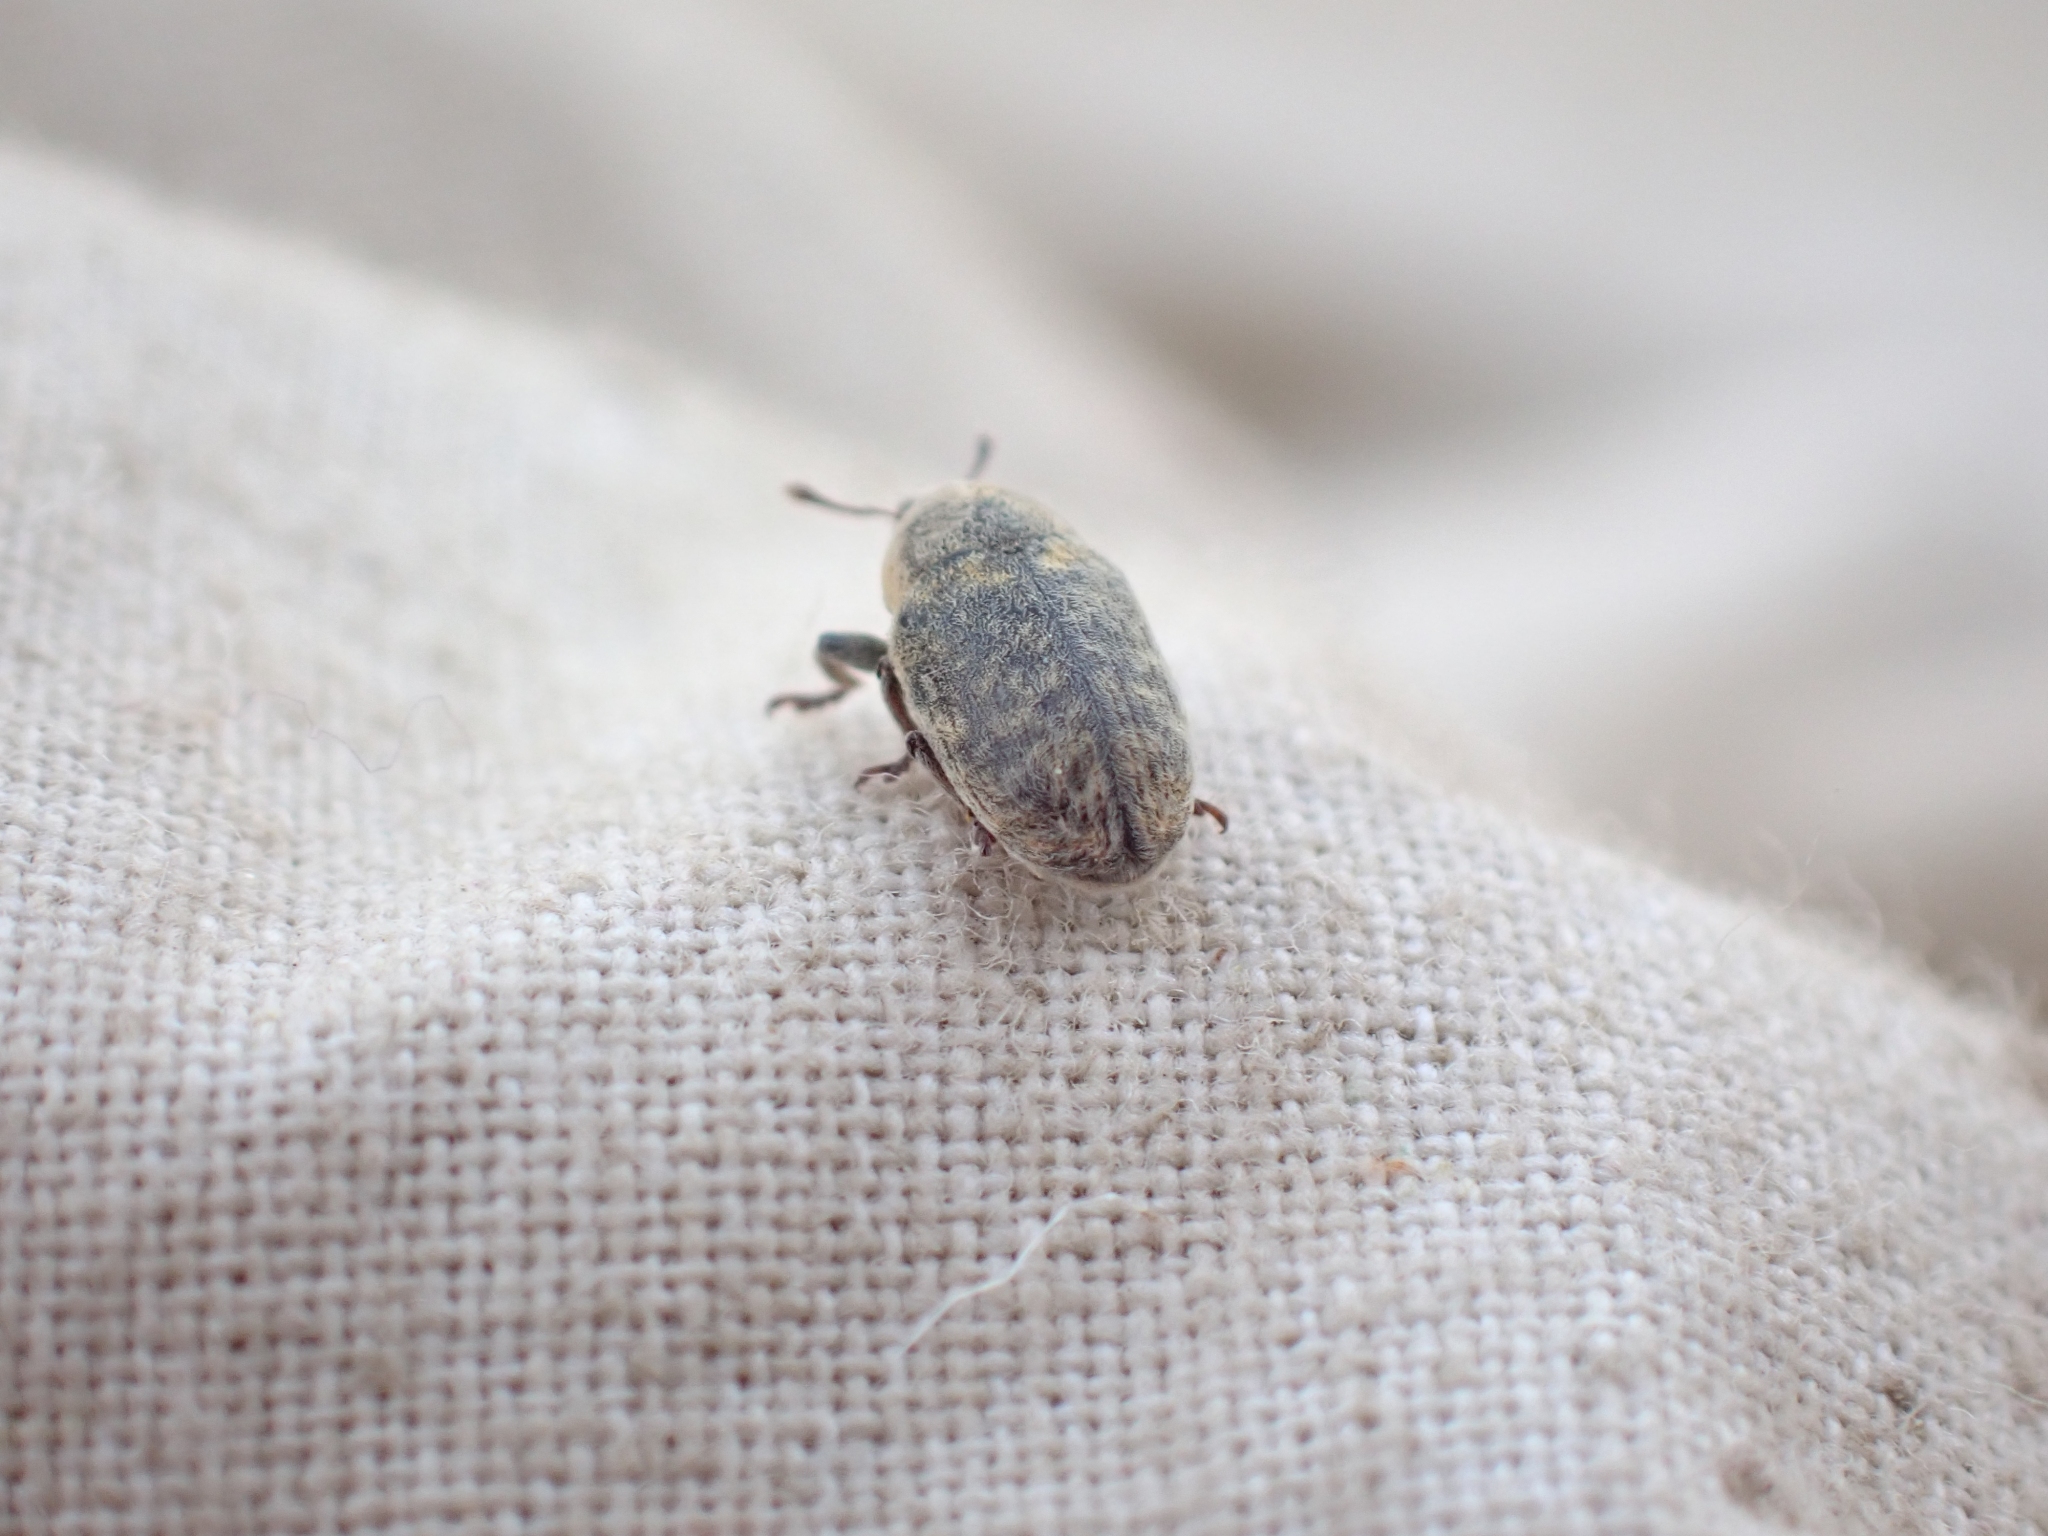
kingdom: Animalia
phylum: Arthropoda
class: Insecta
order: Coleoptera
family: Curculionidae
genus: Larinus
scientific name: Larinus minutus
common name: Weevil
